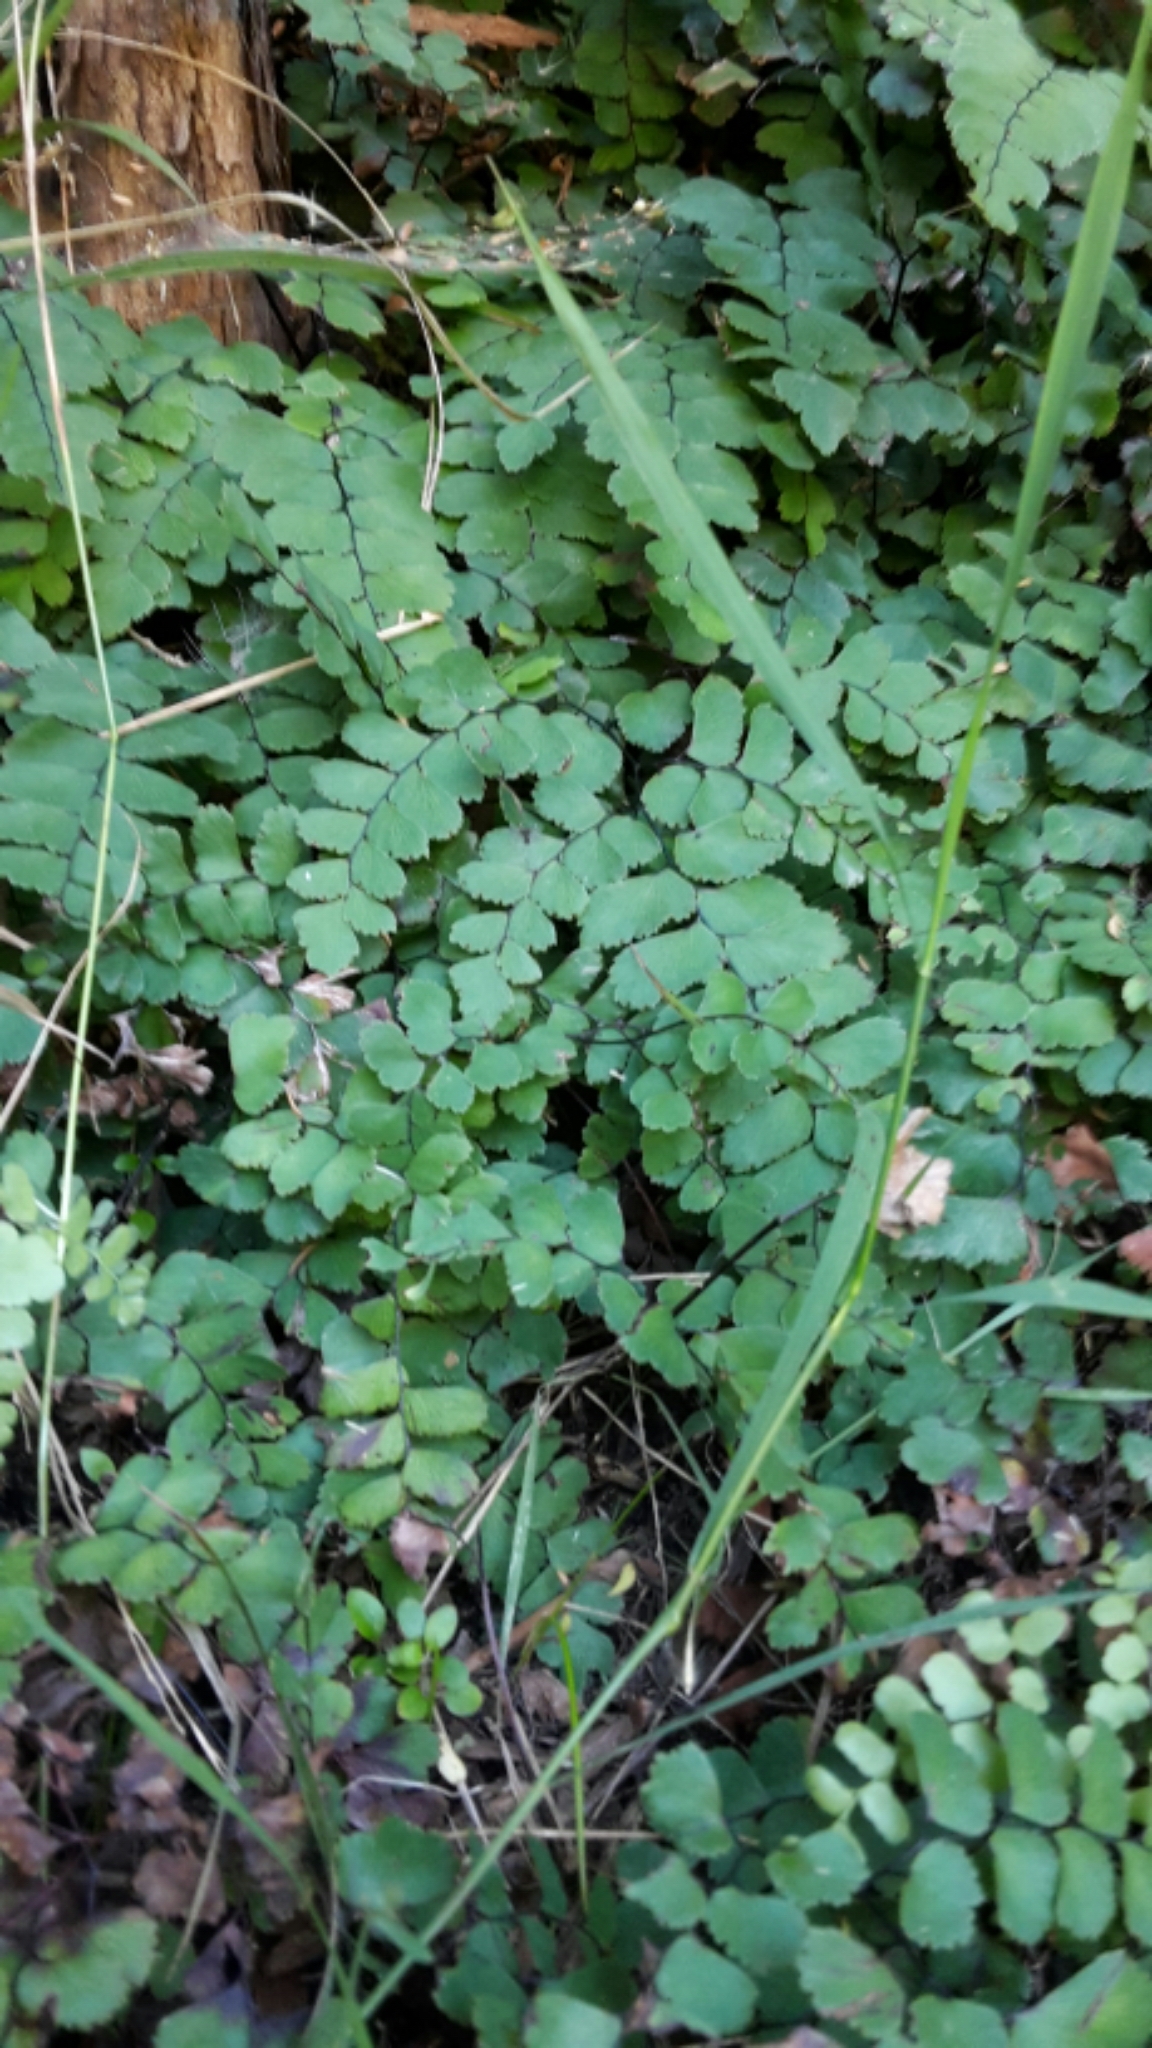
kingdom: Plantae
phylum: Tracheophyta
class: Polypodiopsida
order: Polypodiales
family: Pteridaceae
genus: Adiantum
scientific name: Adiantum cunninghamii
